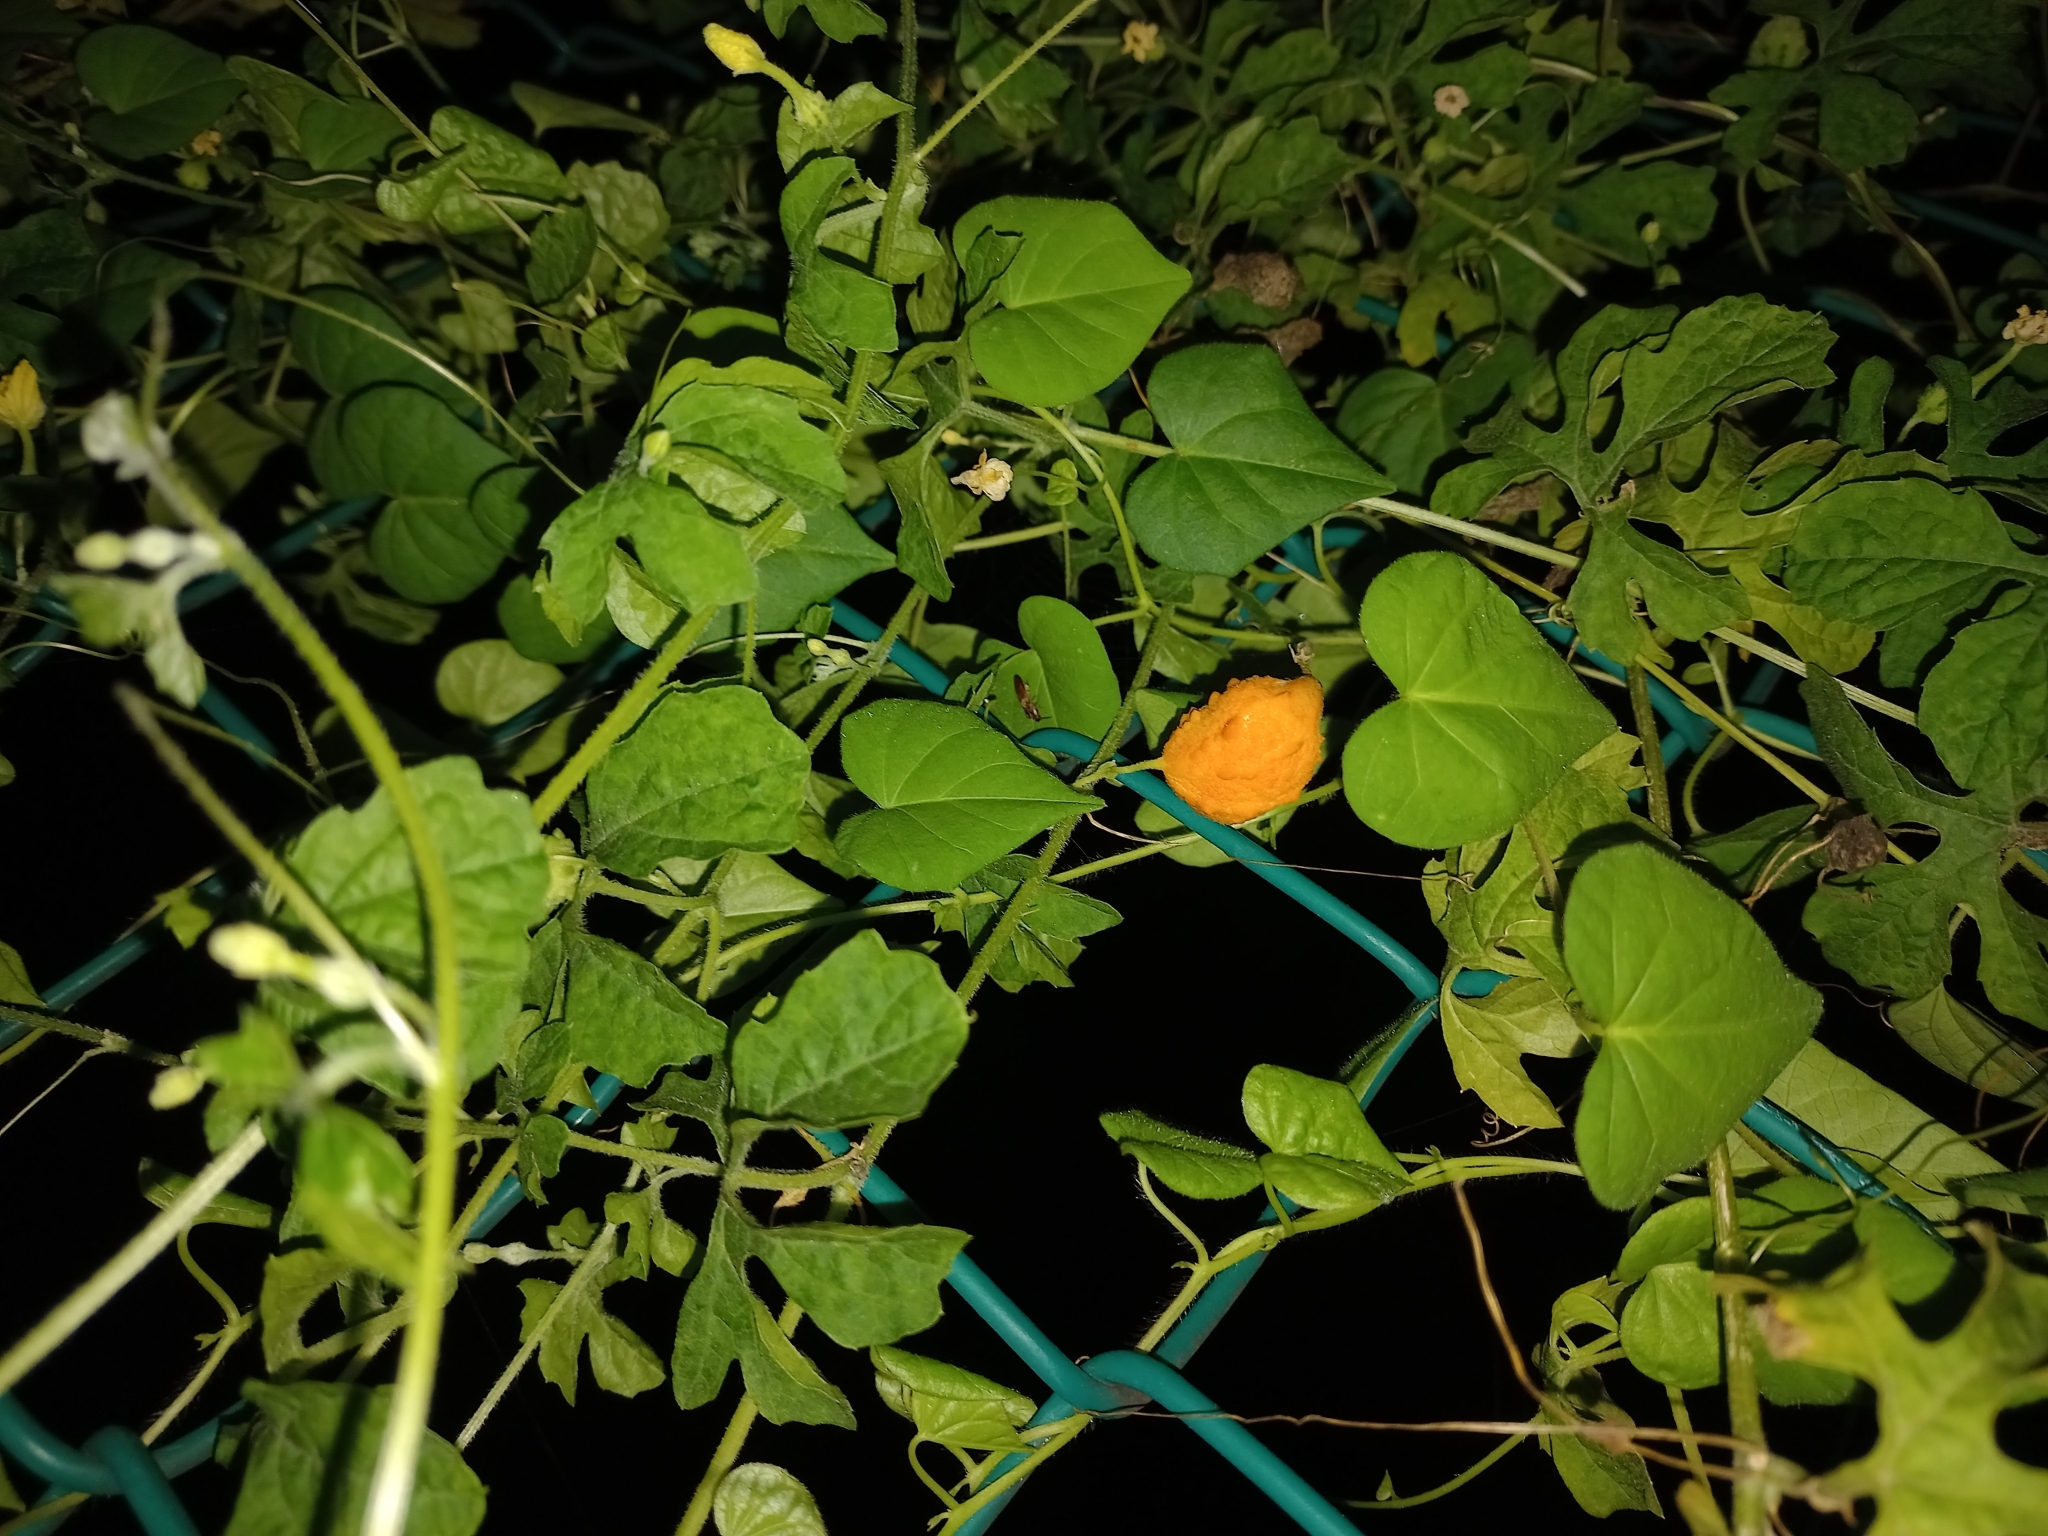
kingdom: Plantae
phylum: Tracheophyta
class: Magnoliopsida
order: Cucurbitales
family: Cucurbitaceae
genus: Momordica
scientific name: Momordica charantia
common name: Balsampear
